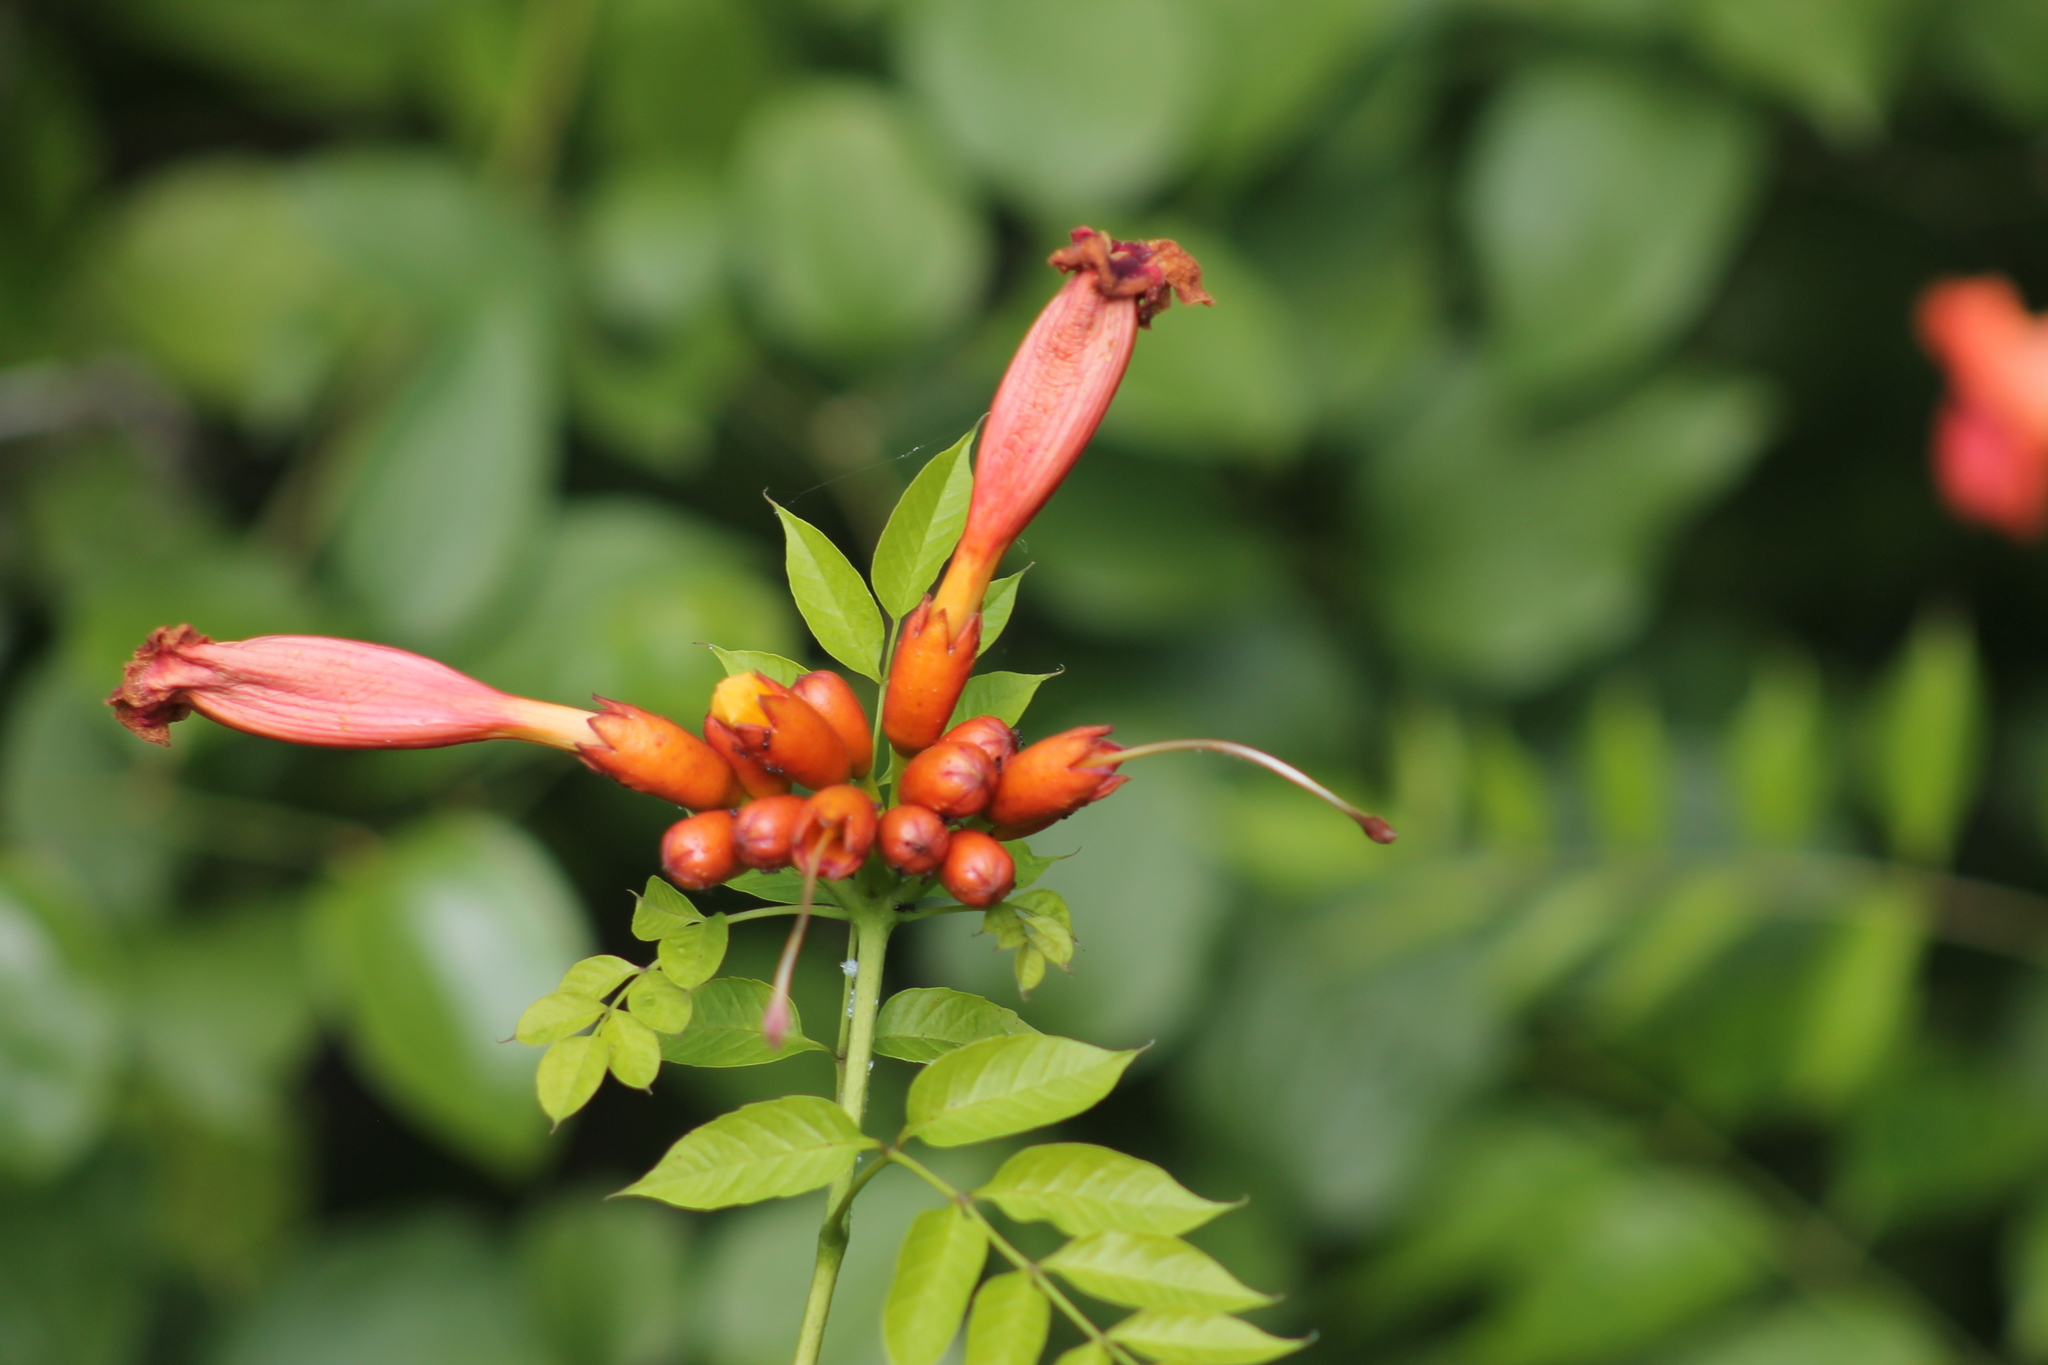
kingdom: Plantae
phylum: Tracheophyta
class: Magnoliopsida
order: Lamiales
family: Bignoniaceae
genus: Campsis
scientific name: Campsis radicans
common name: Trumpet-creeper
